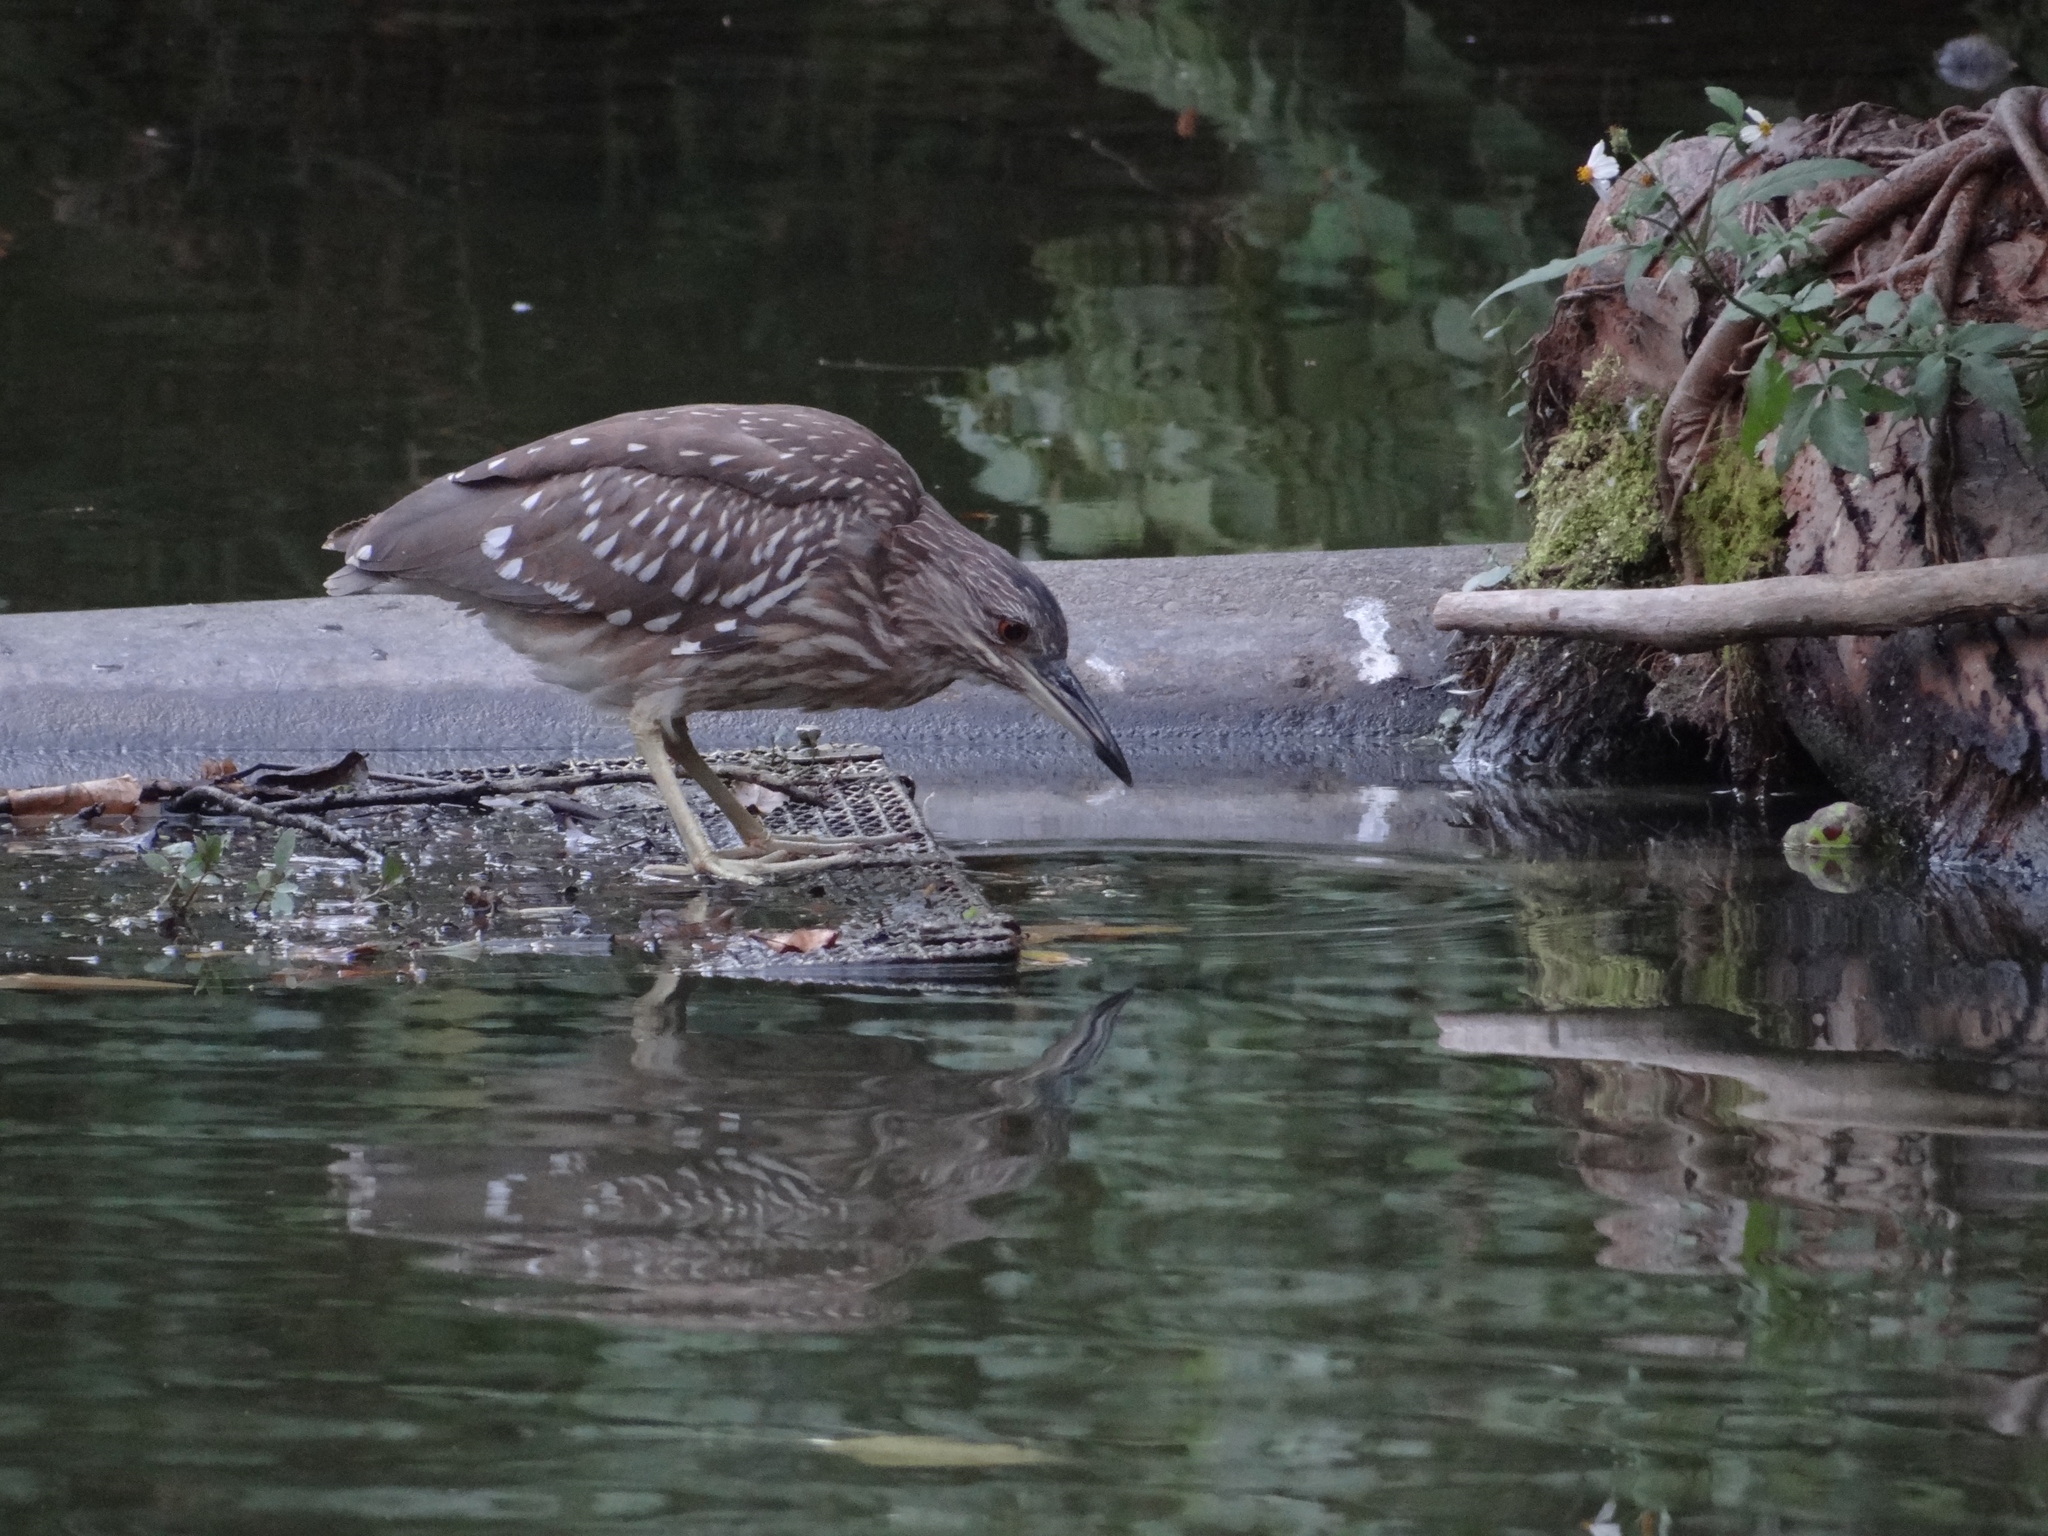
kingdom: Animalia
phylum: Chordata
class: Aves
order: Pelecaniformes
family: Ardeidae
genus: Nycticorax
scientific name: Nycticorax nycticorax
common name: Black-crowned night heron
